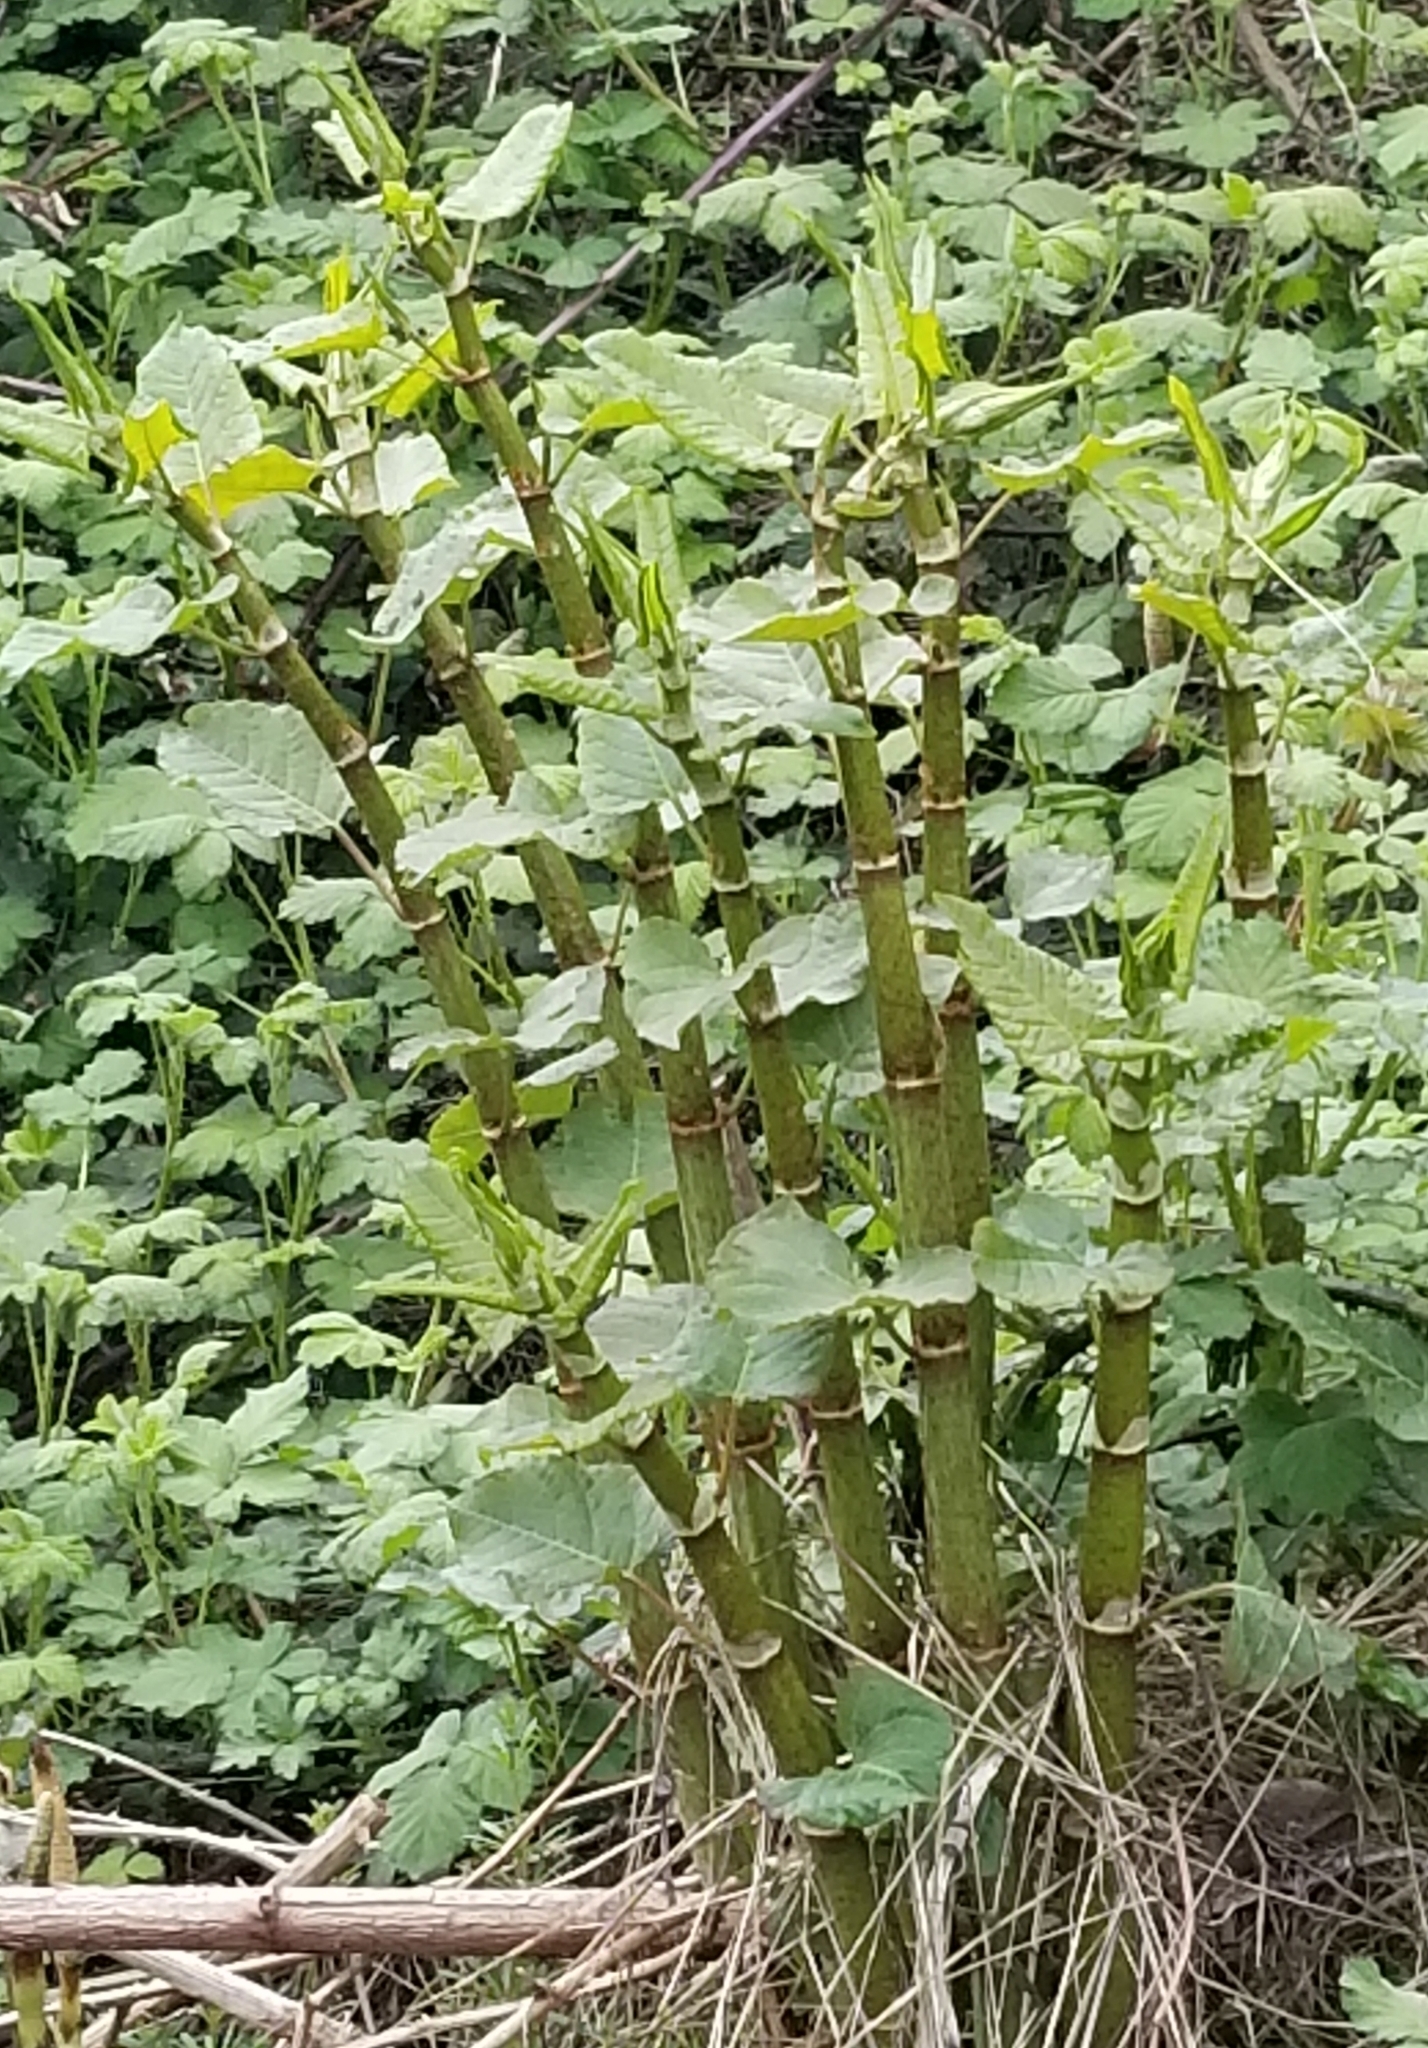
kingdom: Plantae
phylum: Tracheophyta
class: Magnoliopsida
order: Caryophyllales
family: Polygonaceae
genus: Reynoutria
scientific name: Reynoutria bohemica
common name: Bohemian knotweed
